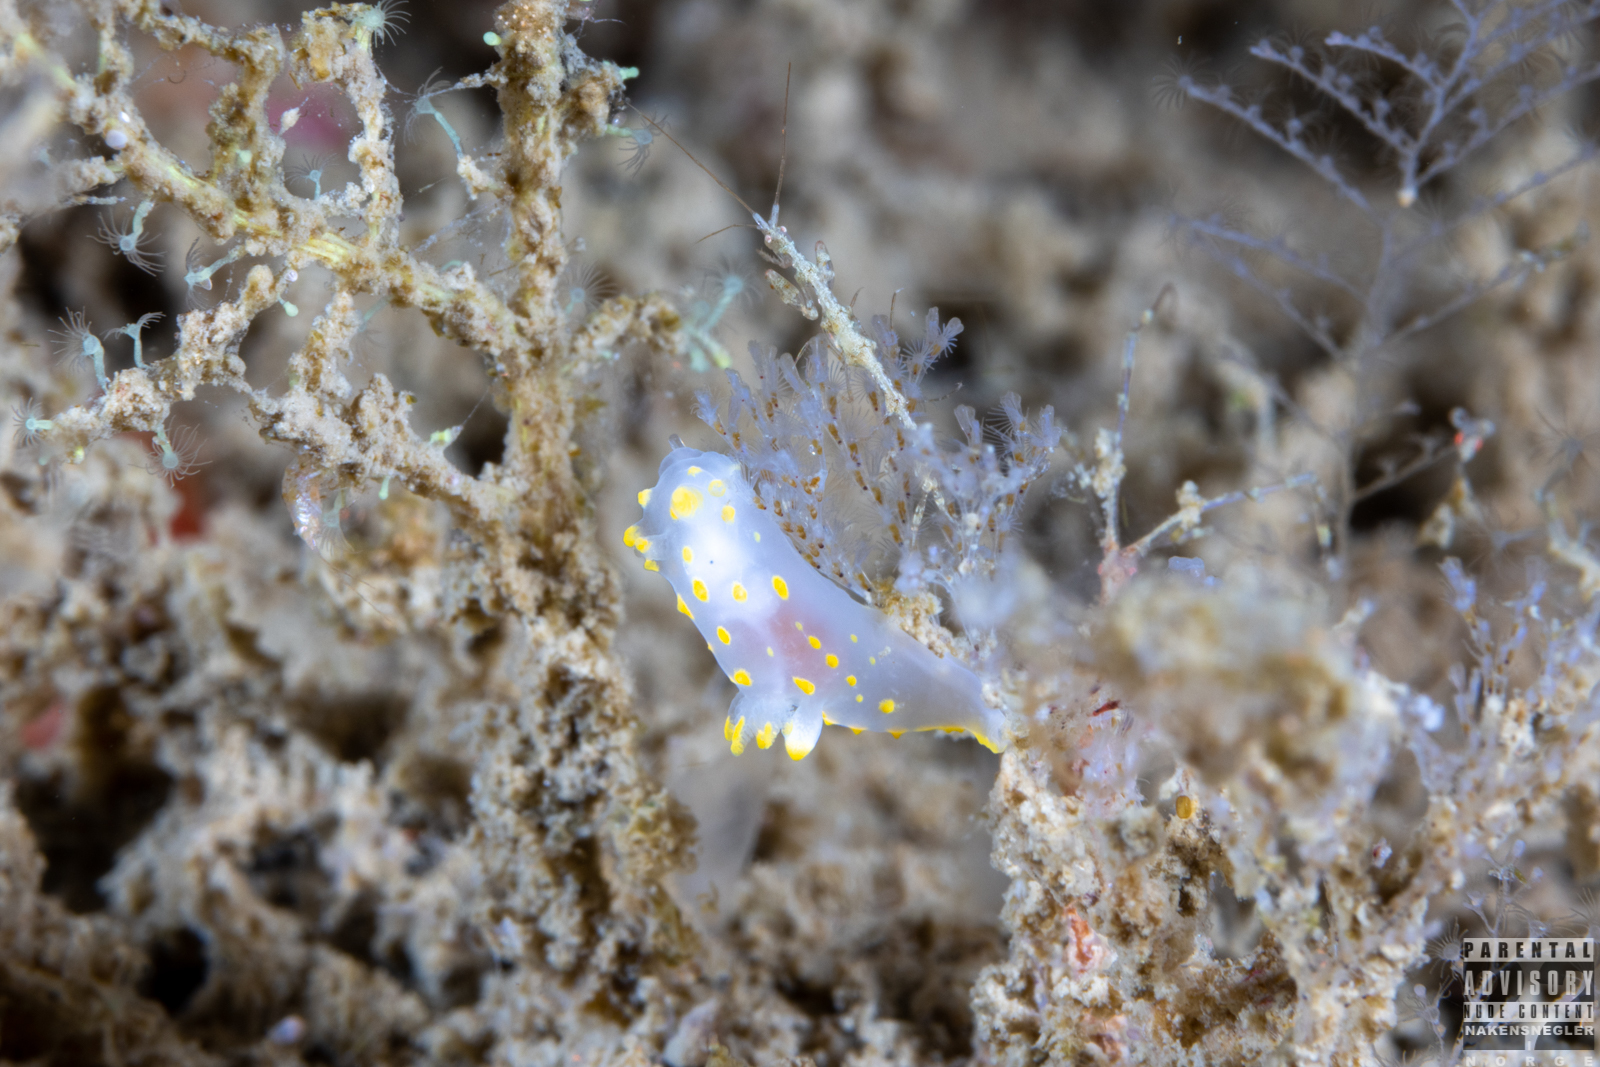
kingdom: Animalia
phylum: Mollusca
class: Gastropoda
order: Nudibranchia
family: Polyceridae
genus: Polycera
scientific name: Polycera quadrilineata
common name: Four-striped polycera
